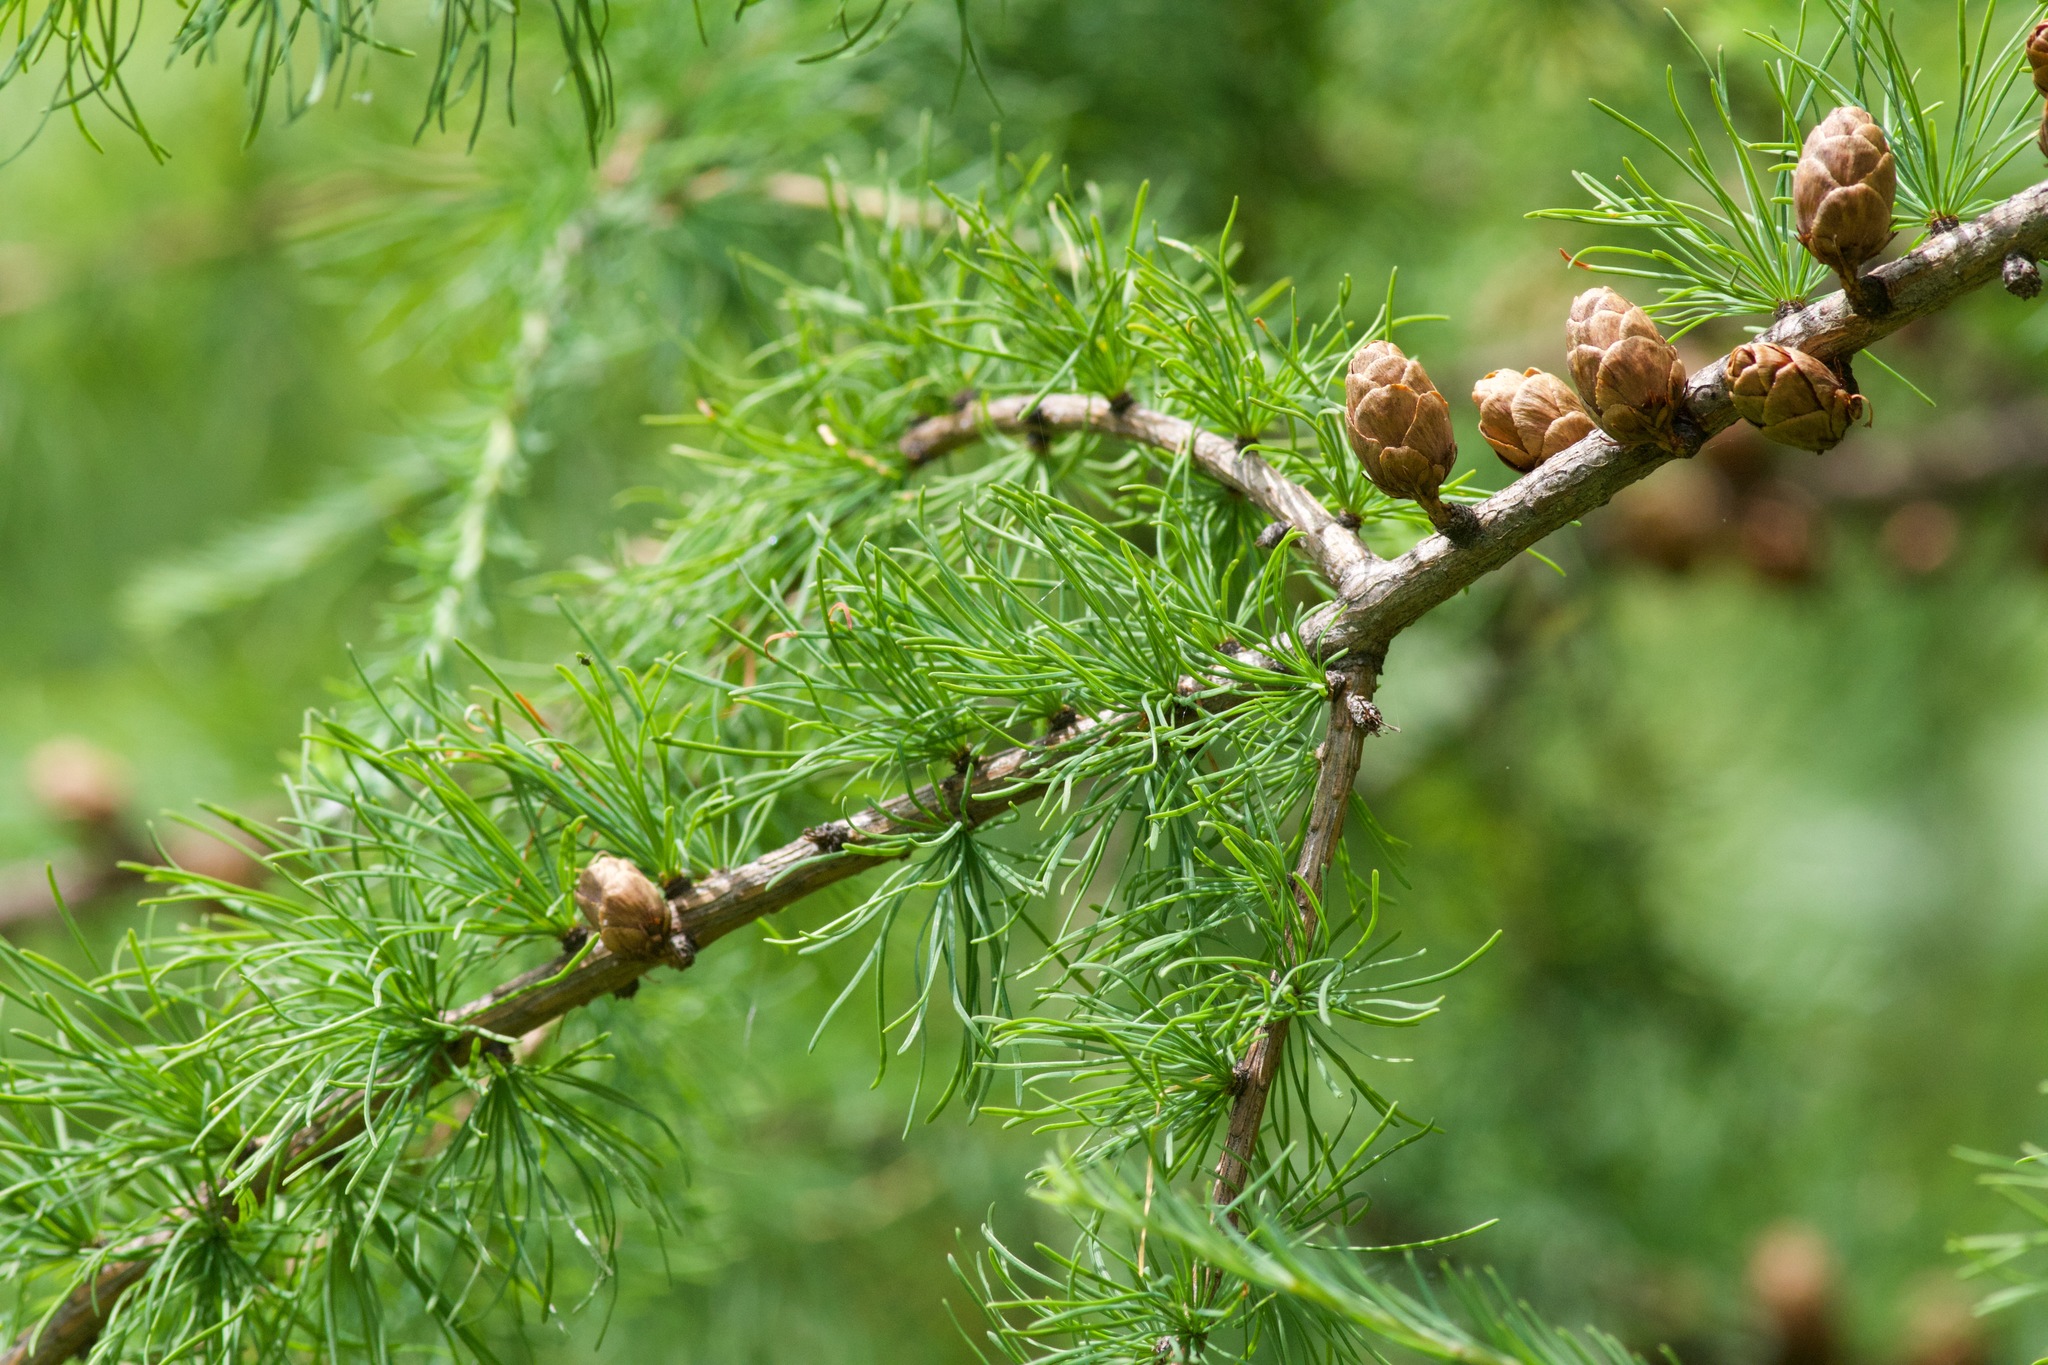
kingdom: Plantae
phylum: Tracheophyta
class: Pinopsida
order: Pinales
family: Pinaceae
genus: Larix
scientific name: Larix laricina
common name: American larch
